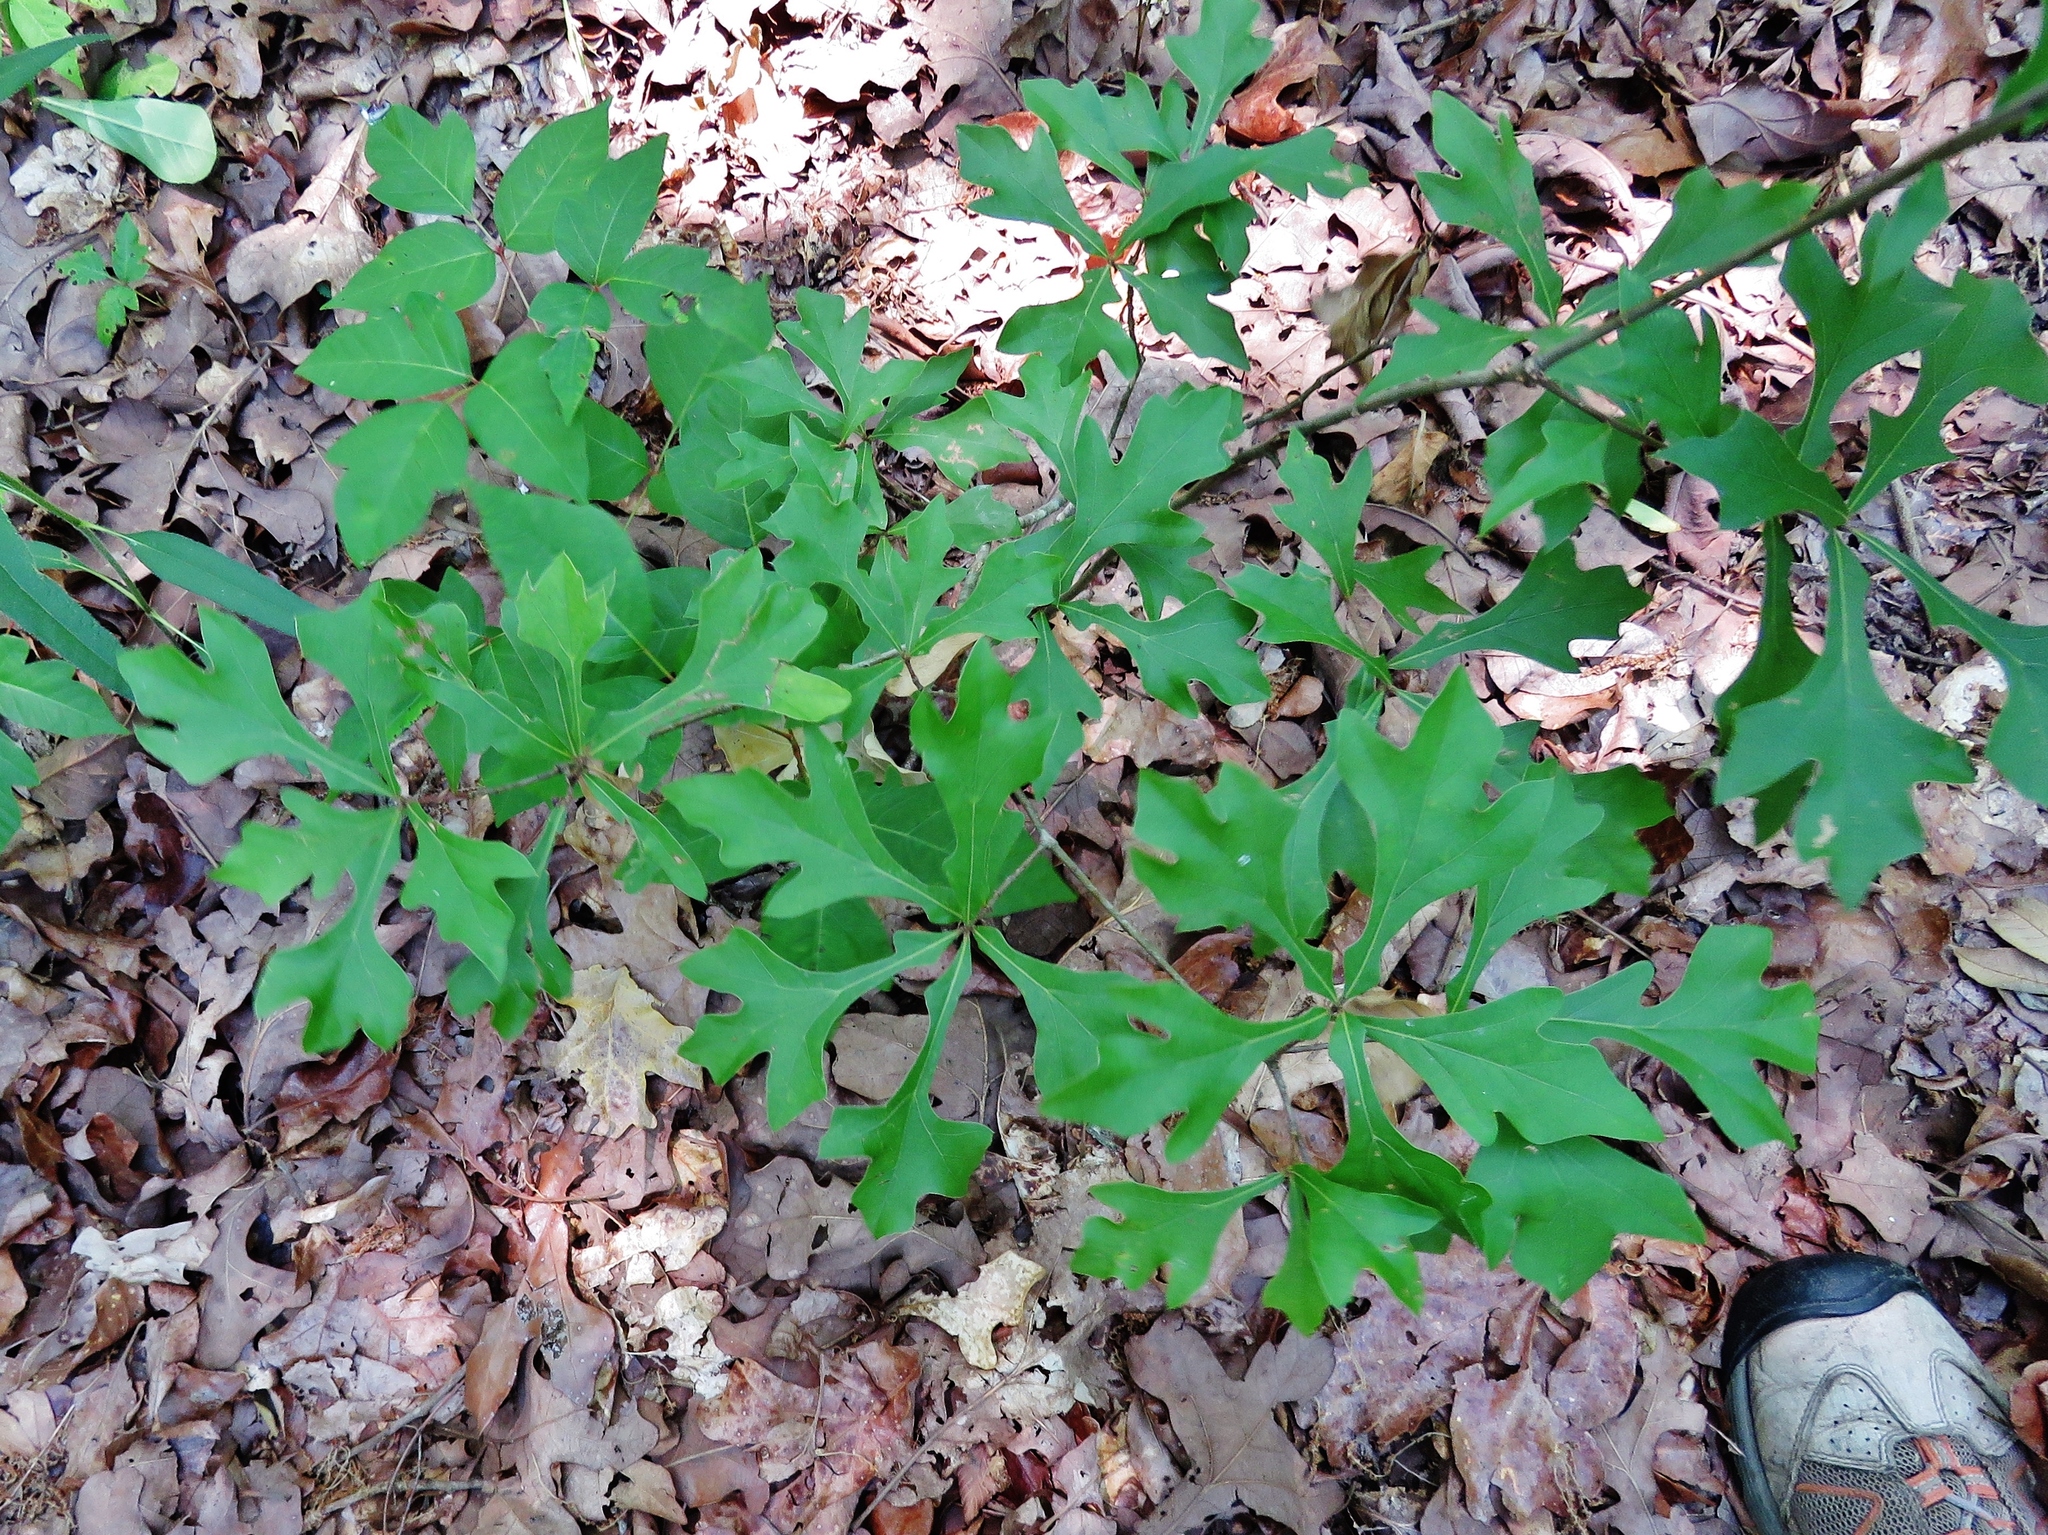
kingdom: Plantae
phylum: Tracheophyta
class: Magnoliopsida
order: Fagales
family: Fagaceae
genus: Quercus
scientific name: Quercus nigra
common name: Water oak
